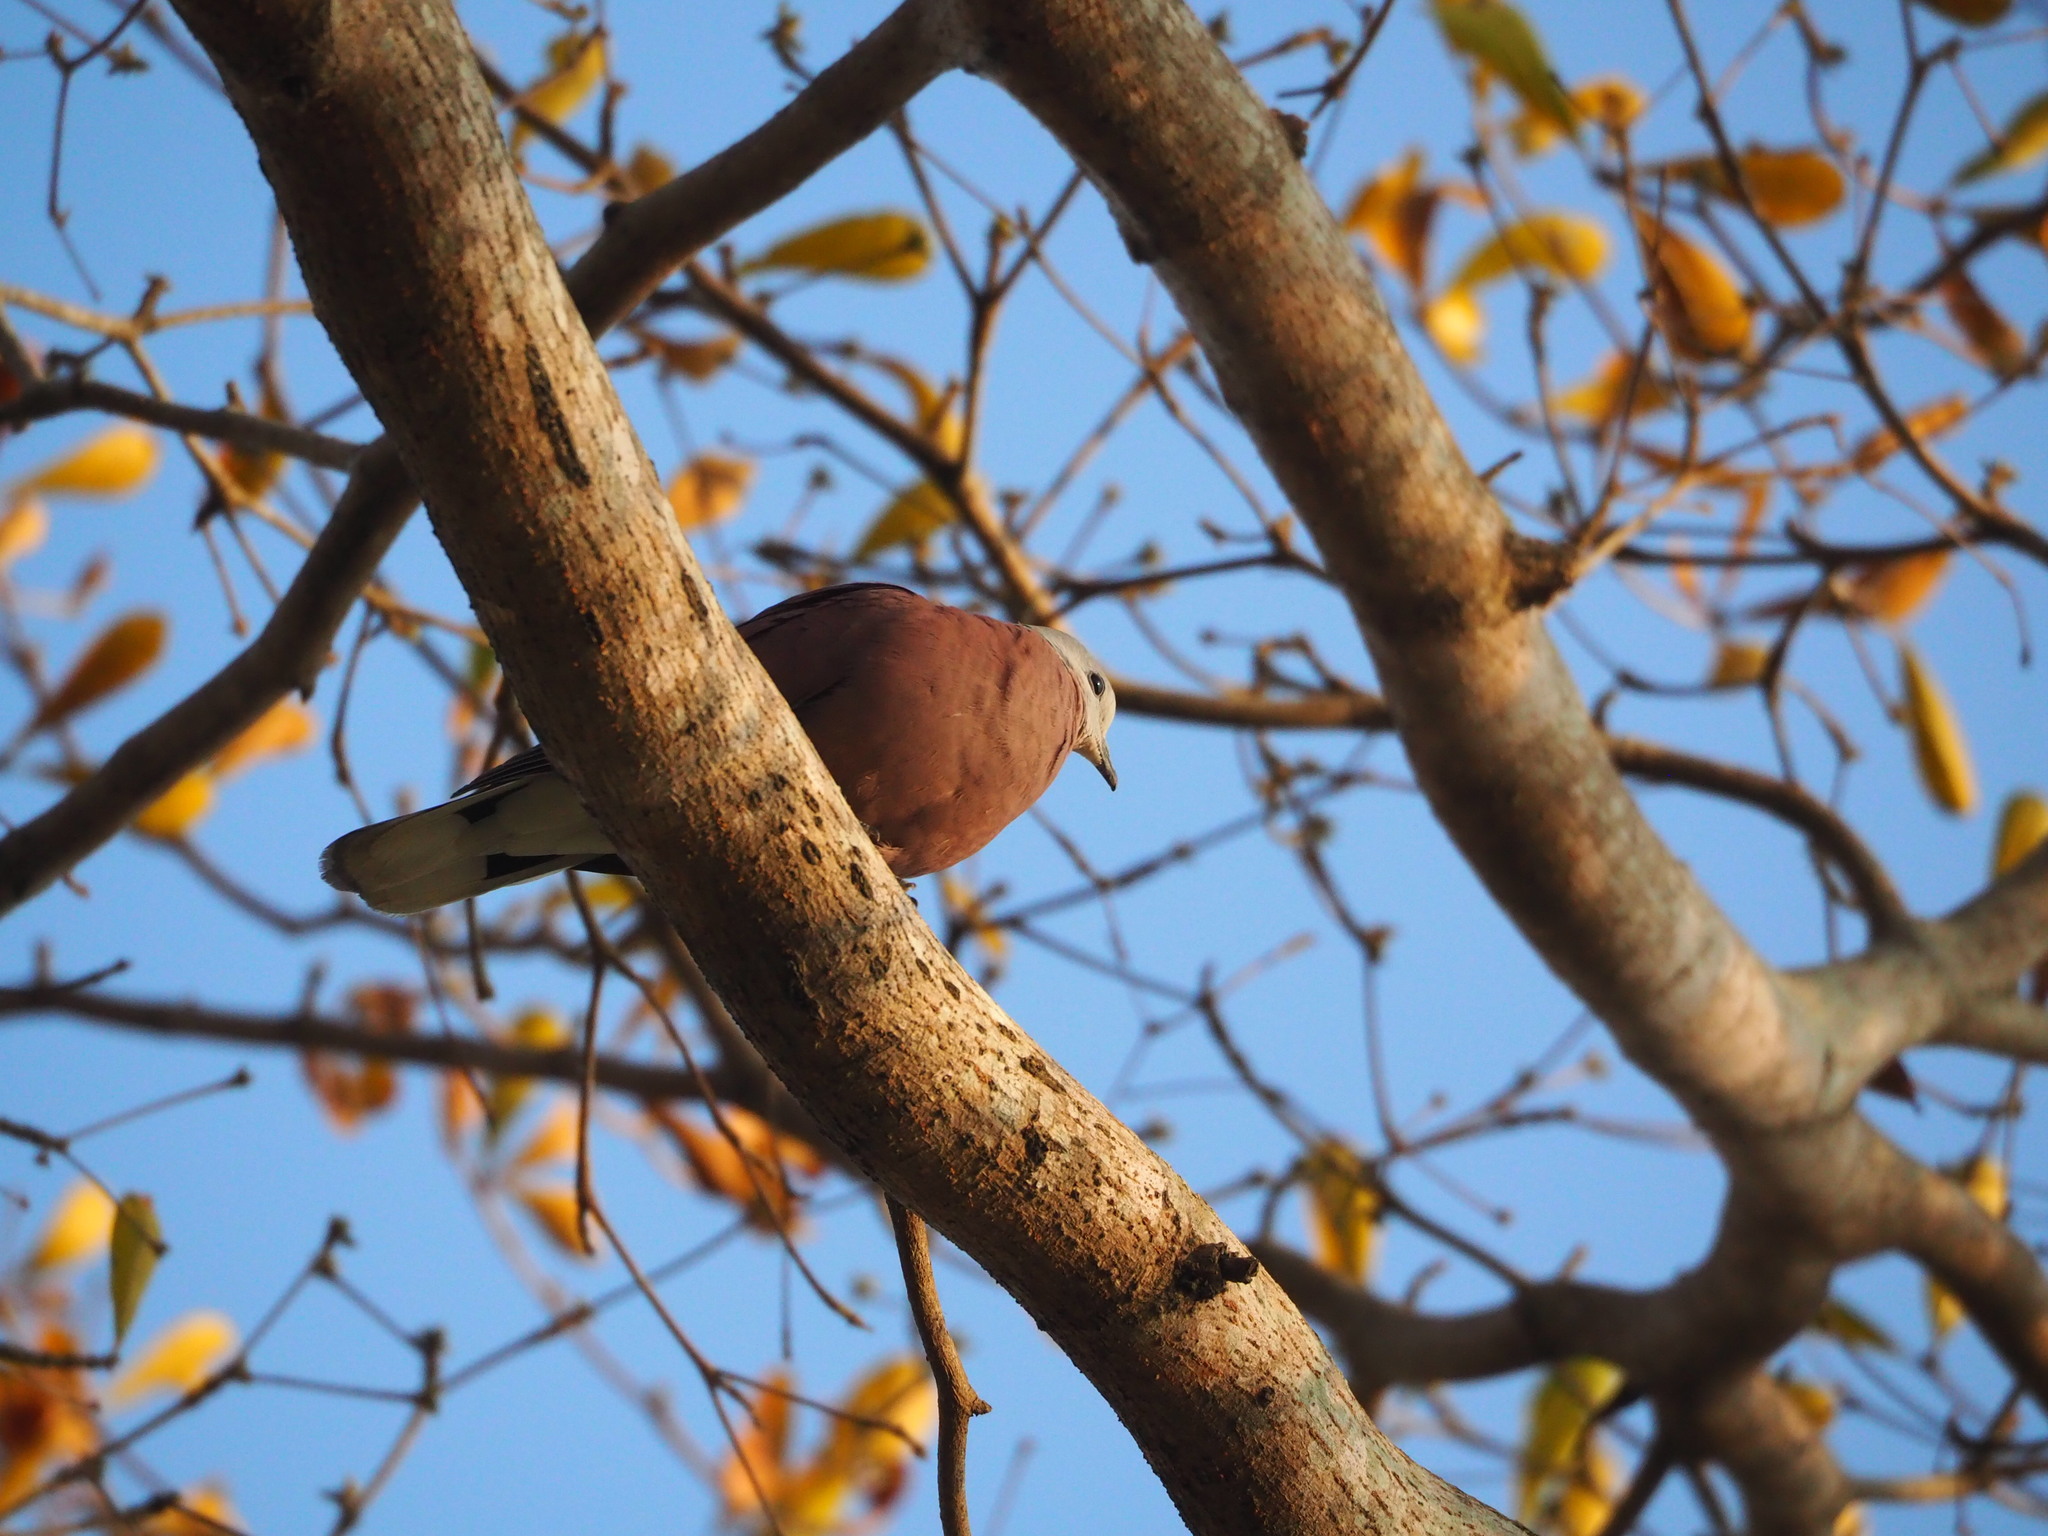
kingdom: Animalia
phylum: Chordata
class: Aves
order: Columbiformes
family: Columbidae
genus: Streptopelia
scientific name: Streptopelia tranquebarica
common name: Red turtle dove
